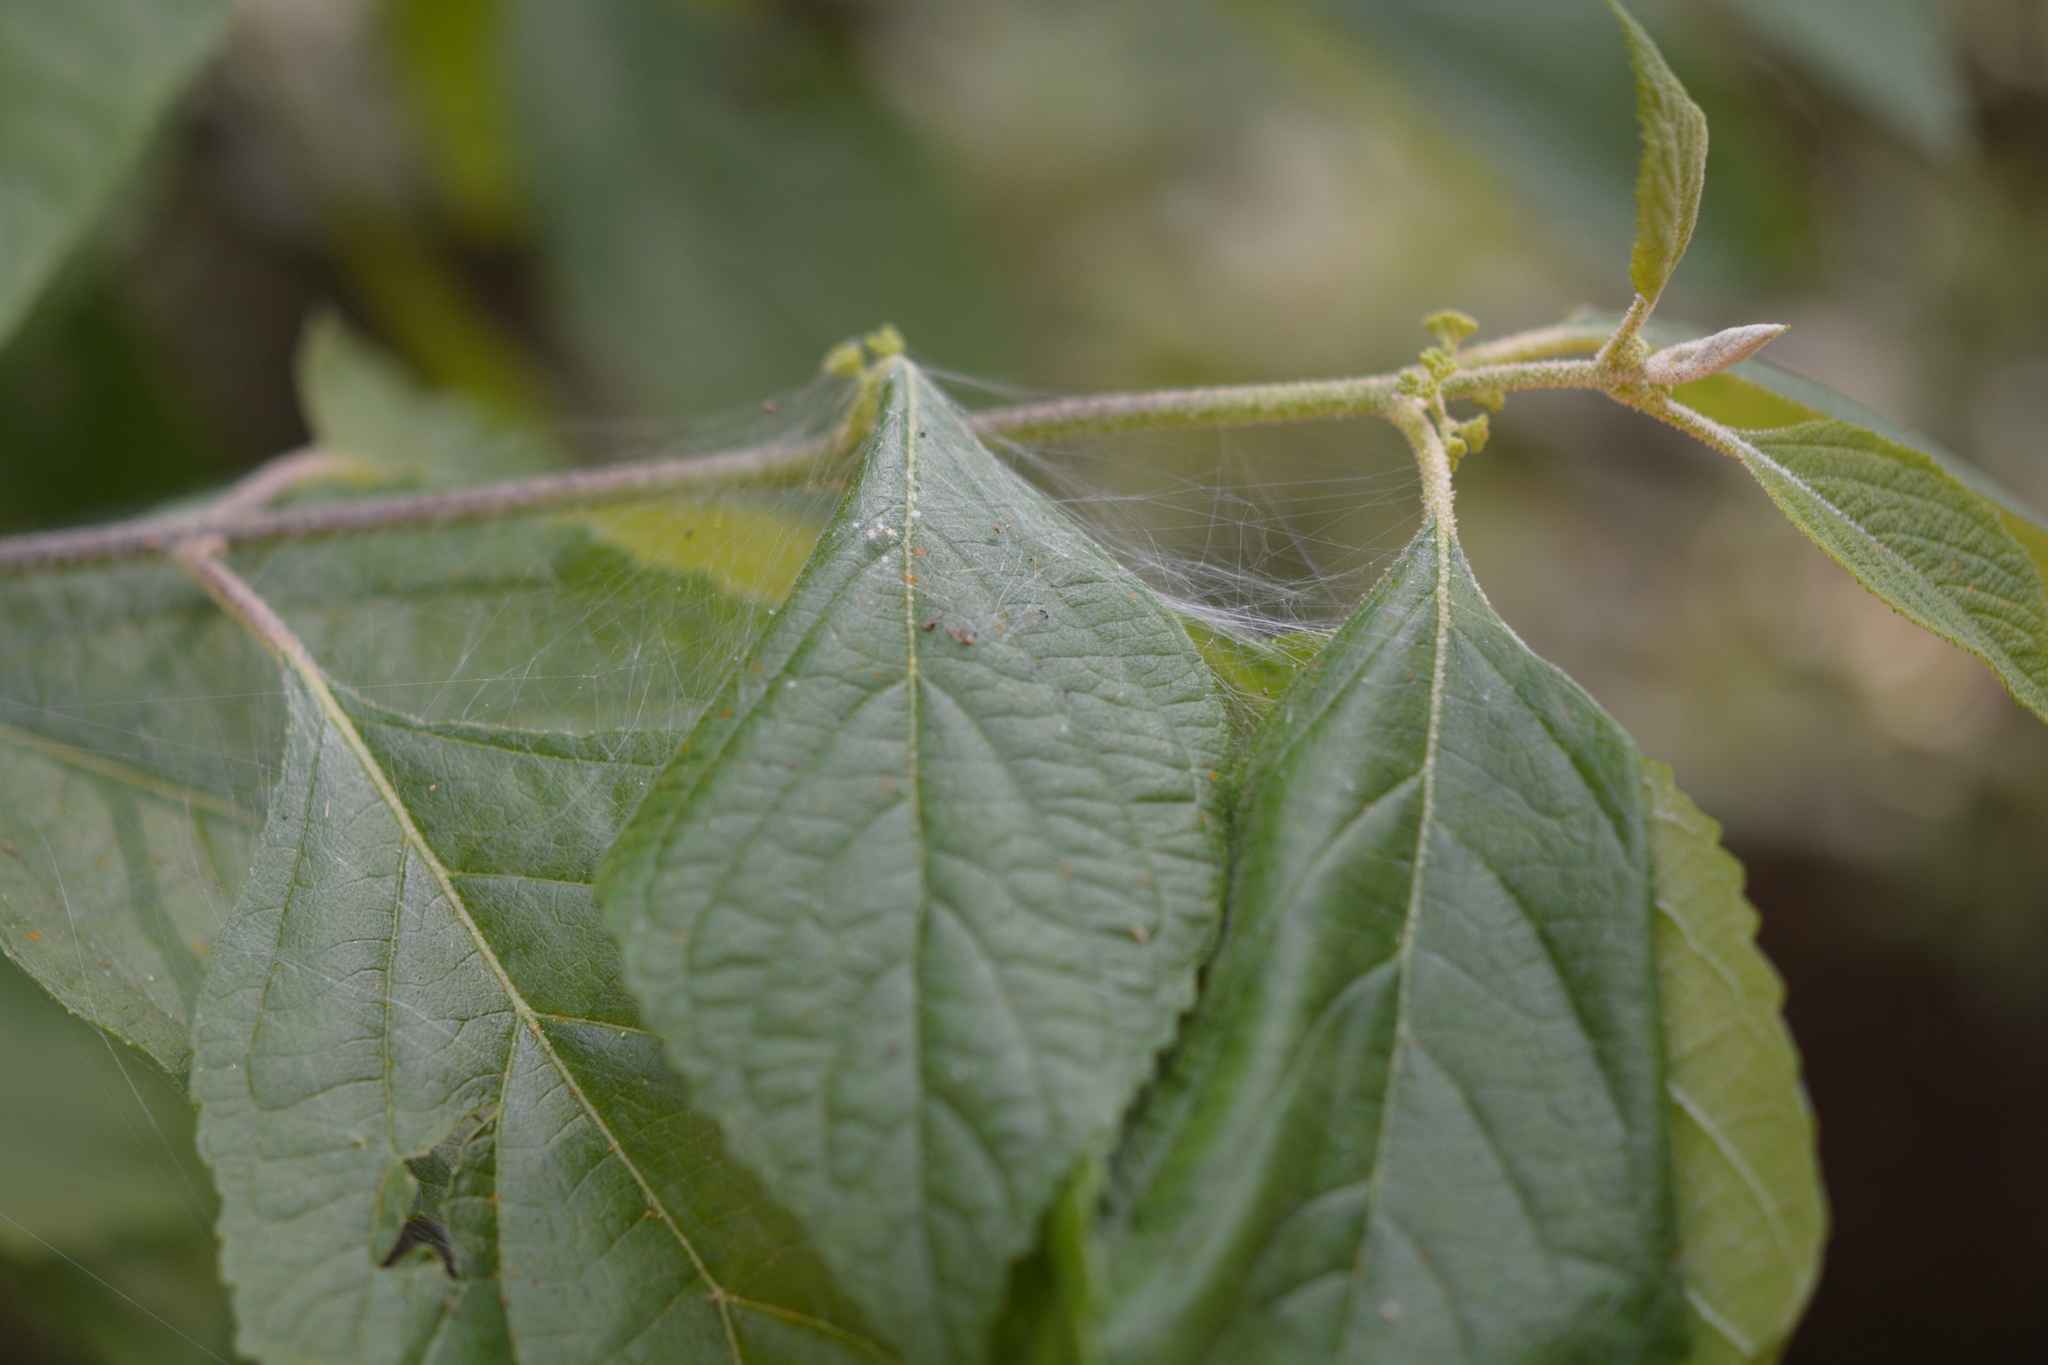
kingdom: Animalia
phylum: Arthropoda
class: Arachnida
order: Araneae
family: Pisauridae
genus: Pisaurina
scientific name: Pisaurina mira
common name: American nursery web spider
